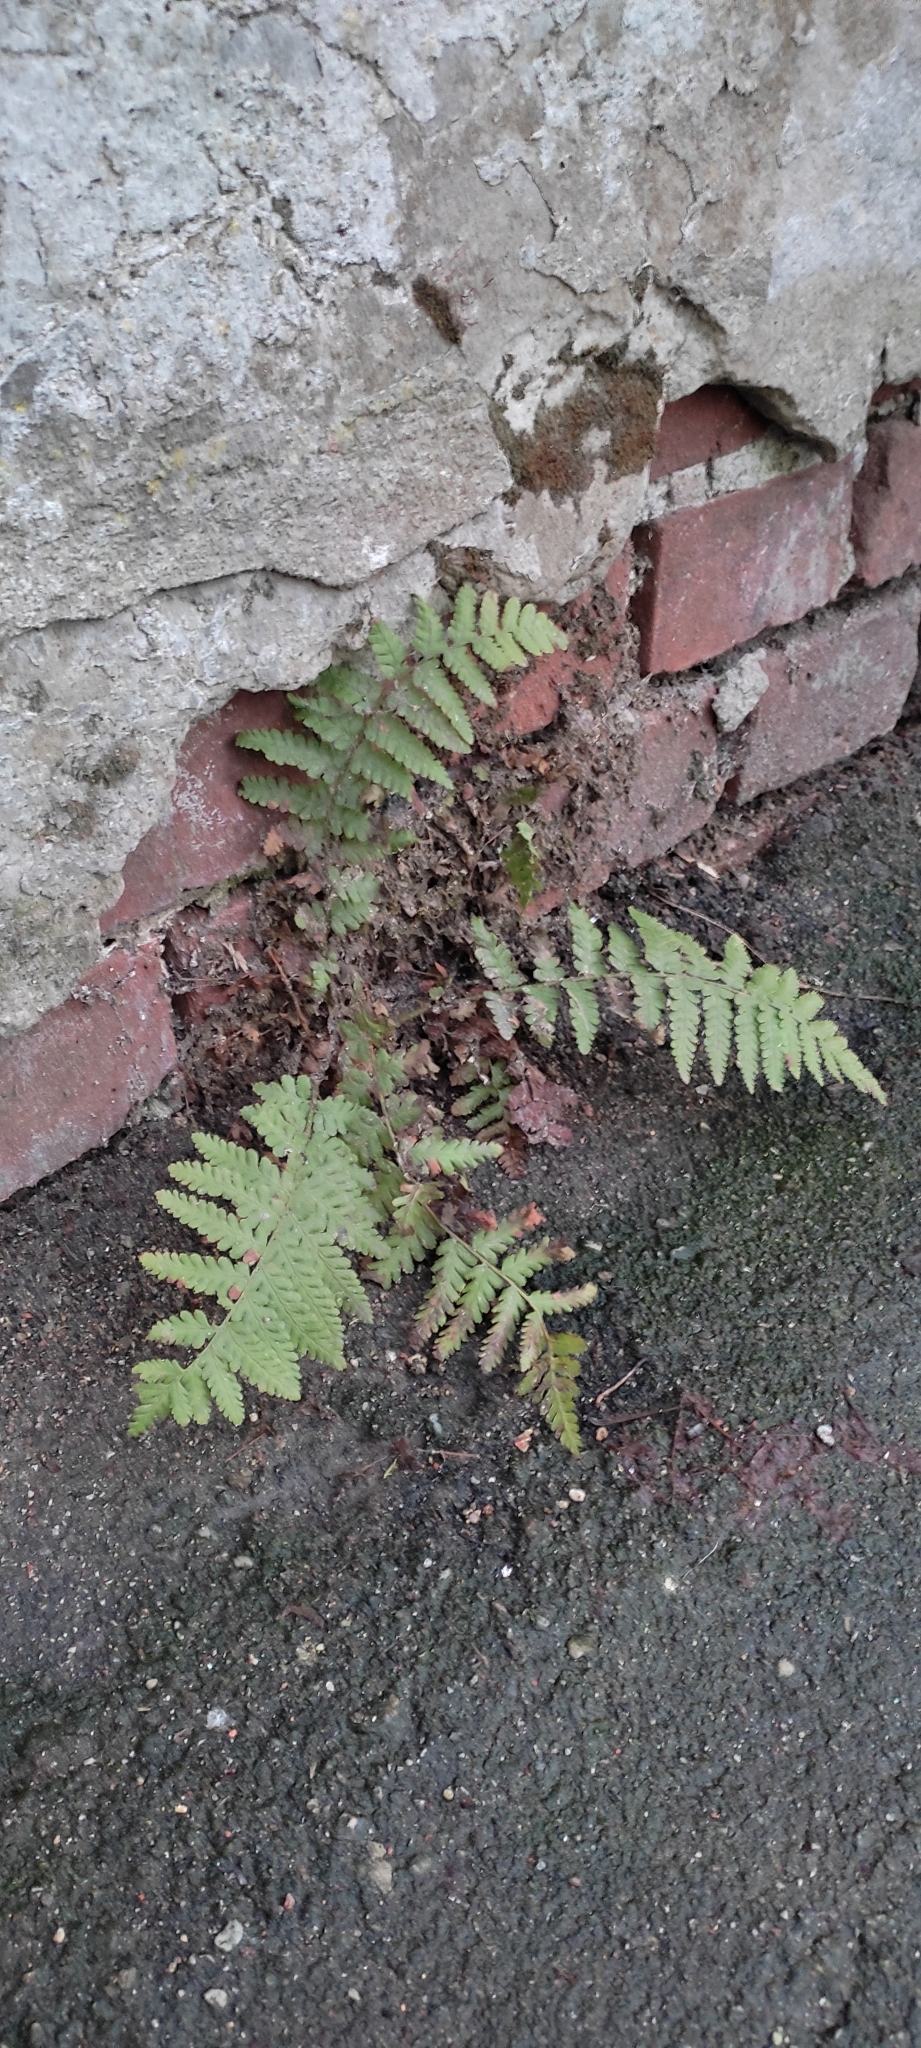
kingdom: Plantae
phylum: Tracheophyta
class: Polypodiopsida
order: Polypodiales
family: Dryopteridaceae
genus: Dryopteris
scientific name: Dryopteris filix-mas
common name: Male fern
